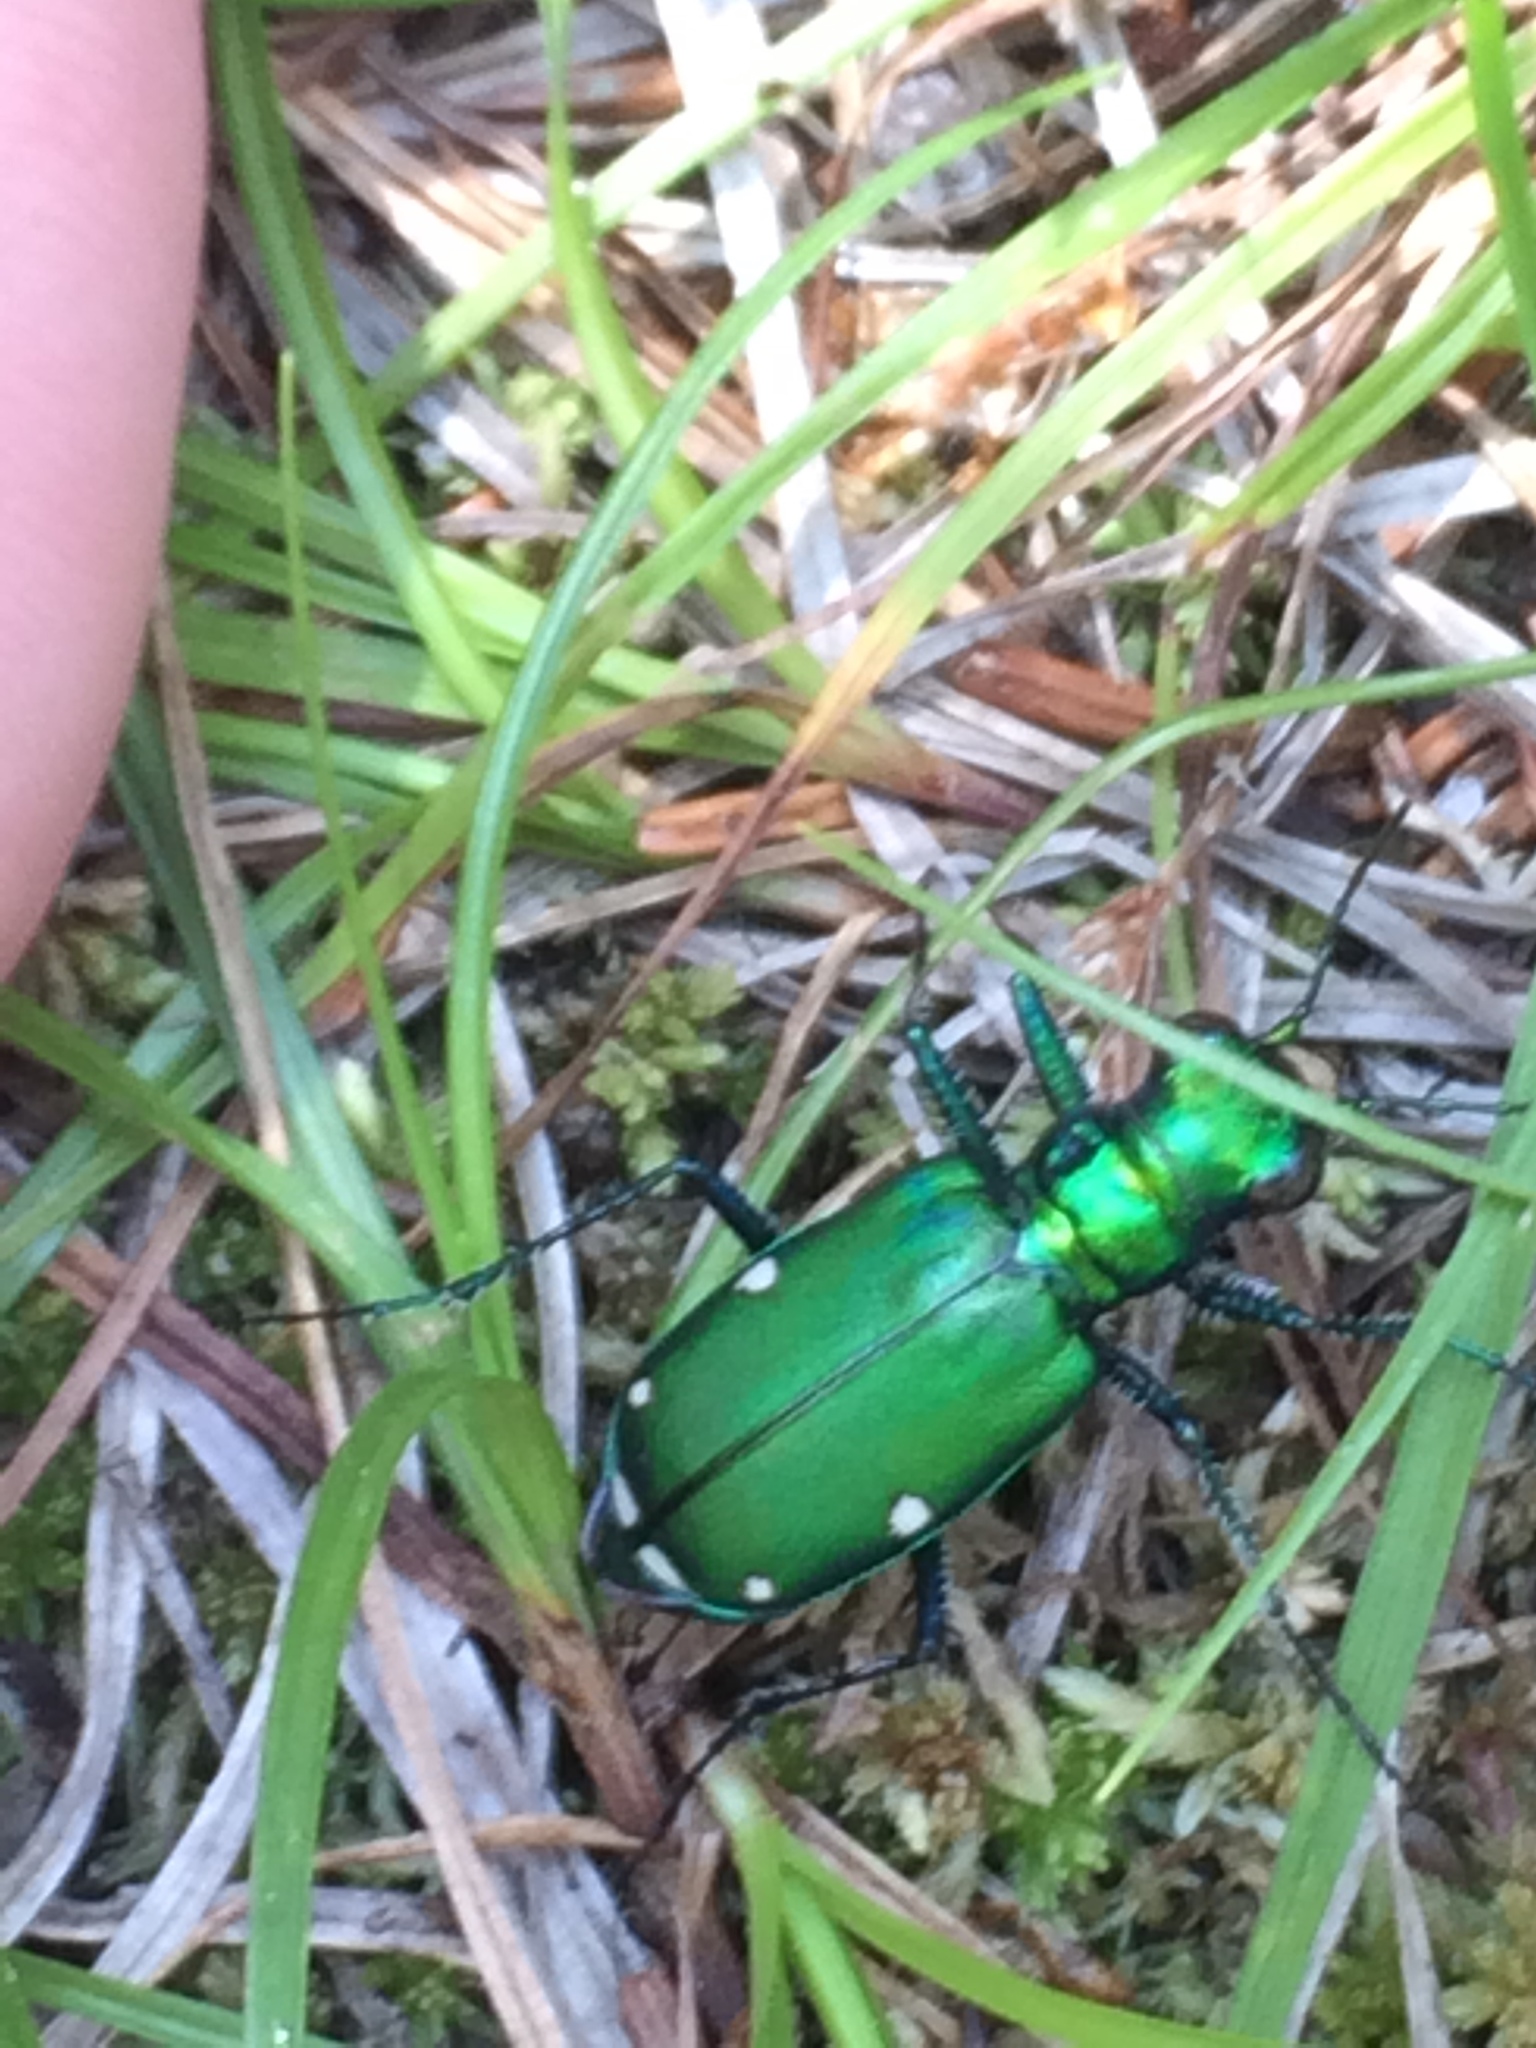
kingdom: Animalia
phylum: Arthropoda
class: Insecta
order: Coleoptera
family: Carabidae
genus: Cicindela
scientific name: Cicindela sexguttata
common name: Six-spotted tiger beetle
